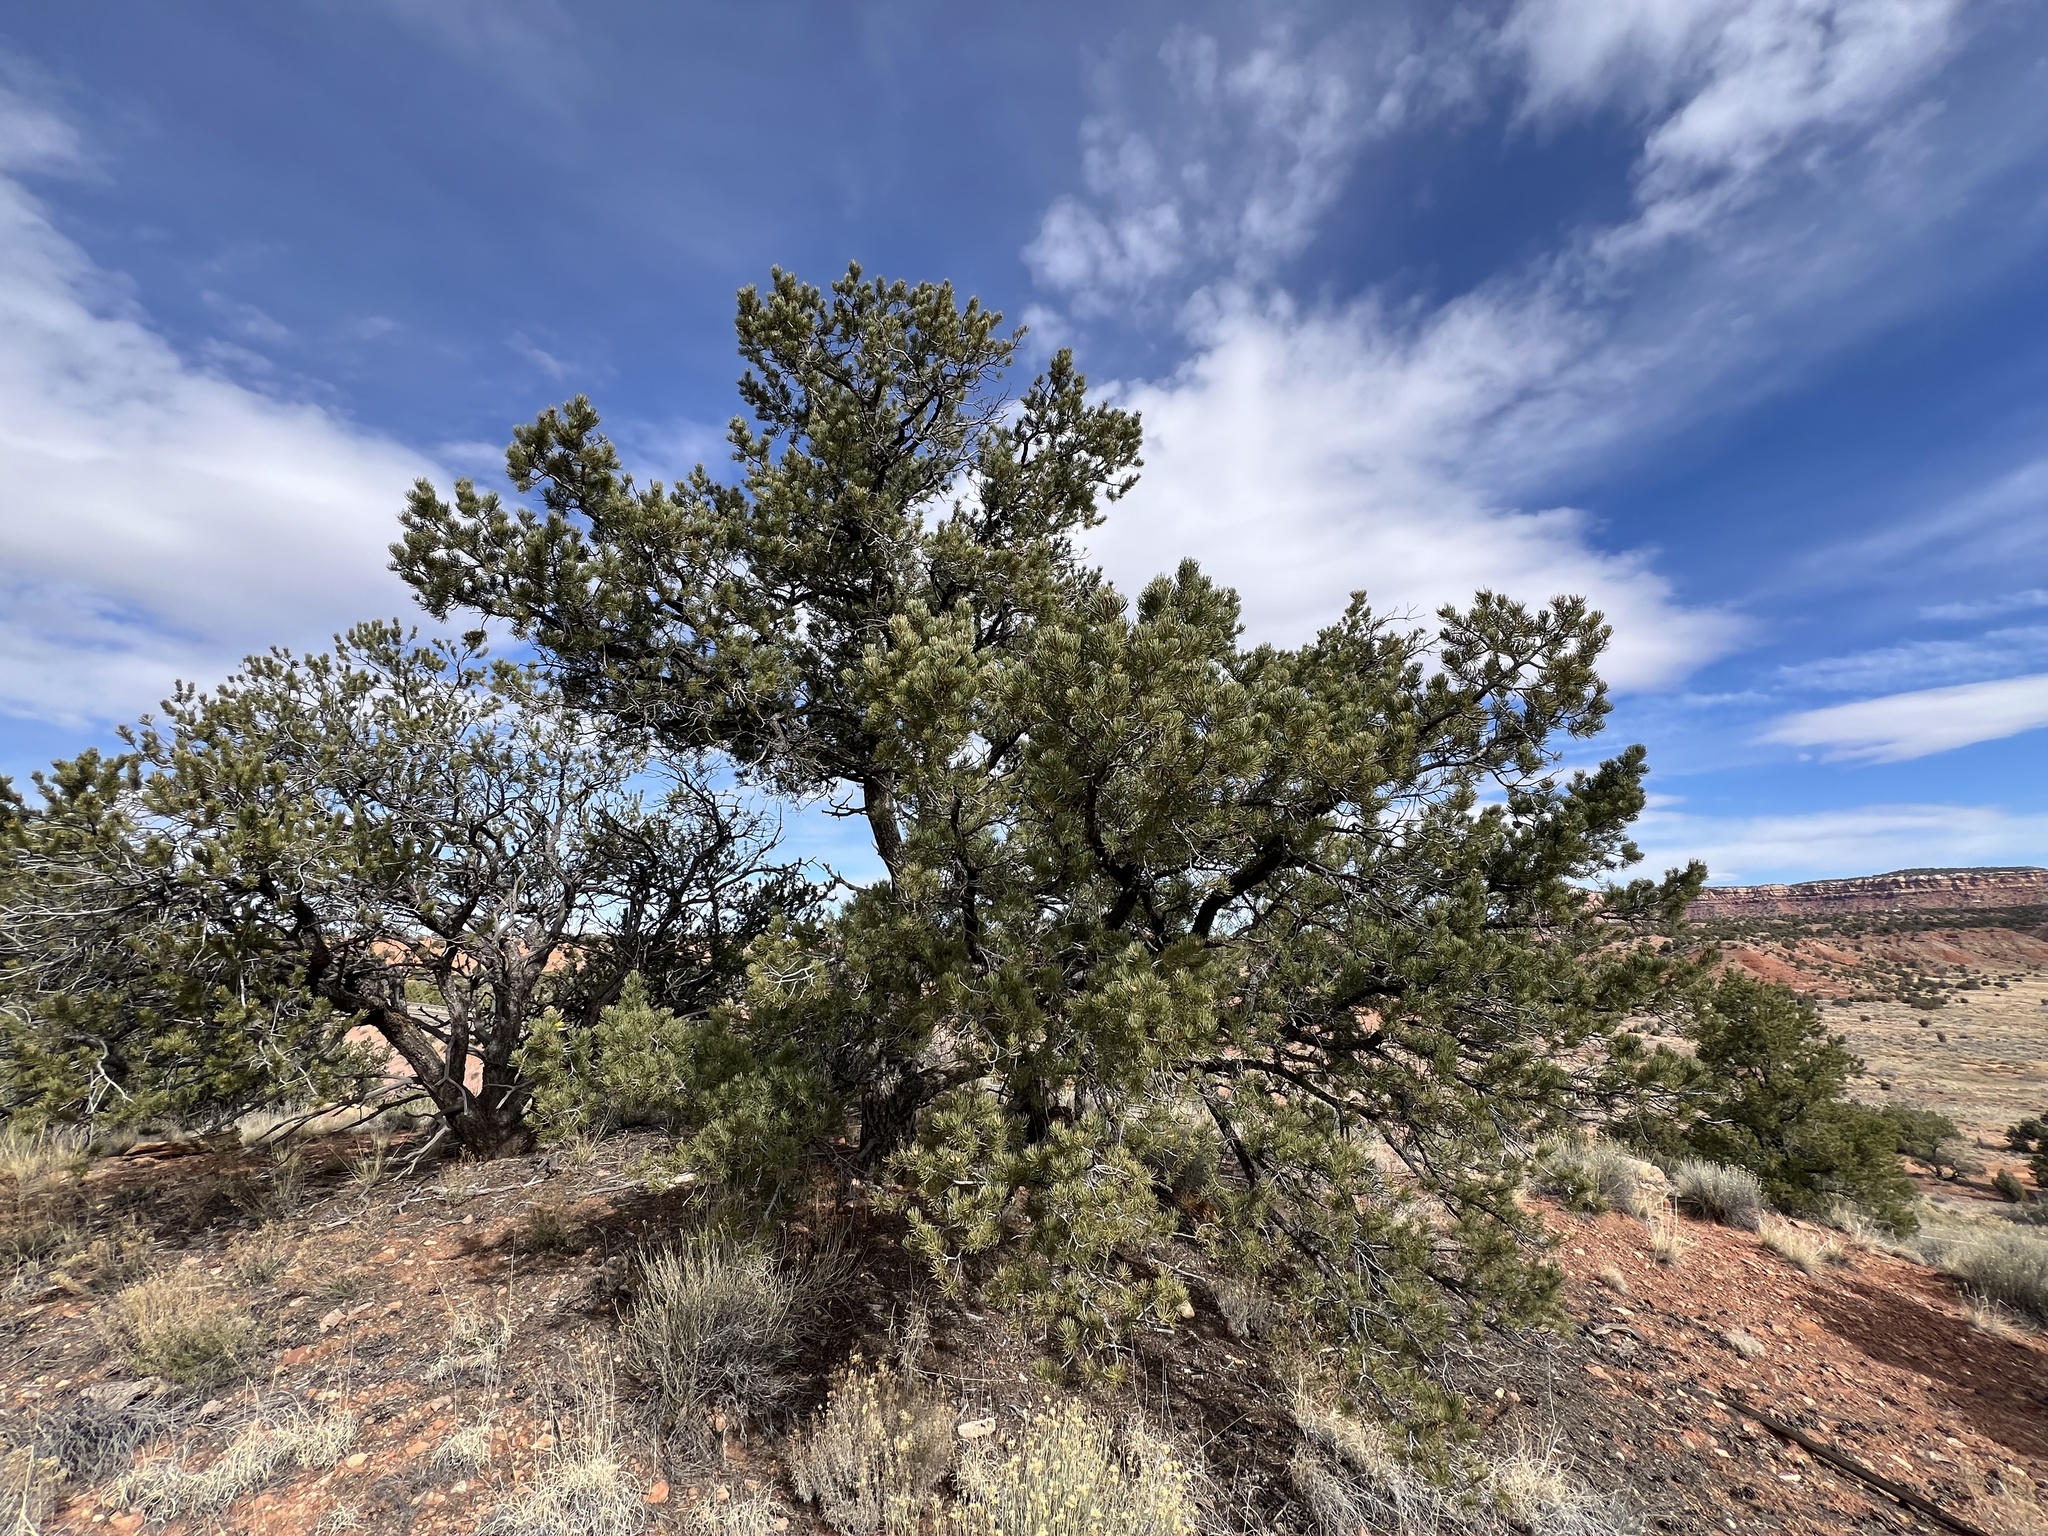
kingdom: Plantae
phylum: Tracheophyta
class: Pinopsida
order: Pinales
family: Pinaceae
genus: Pinus
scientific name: Pinus edulis
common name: Colorado pinyon
